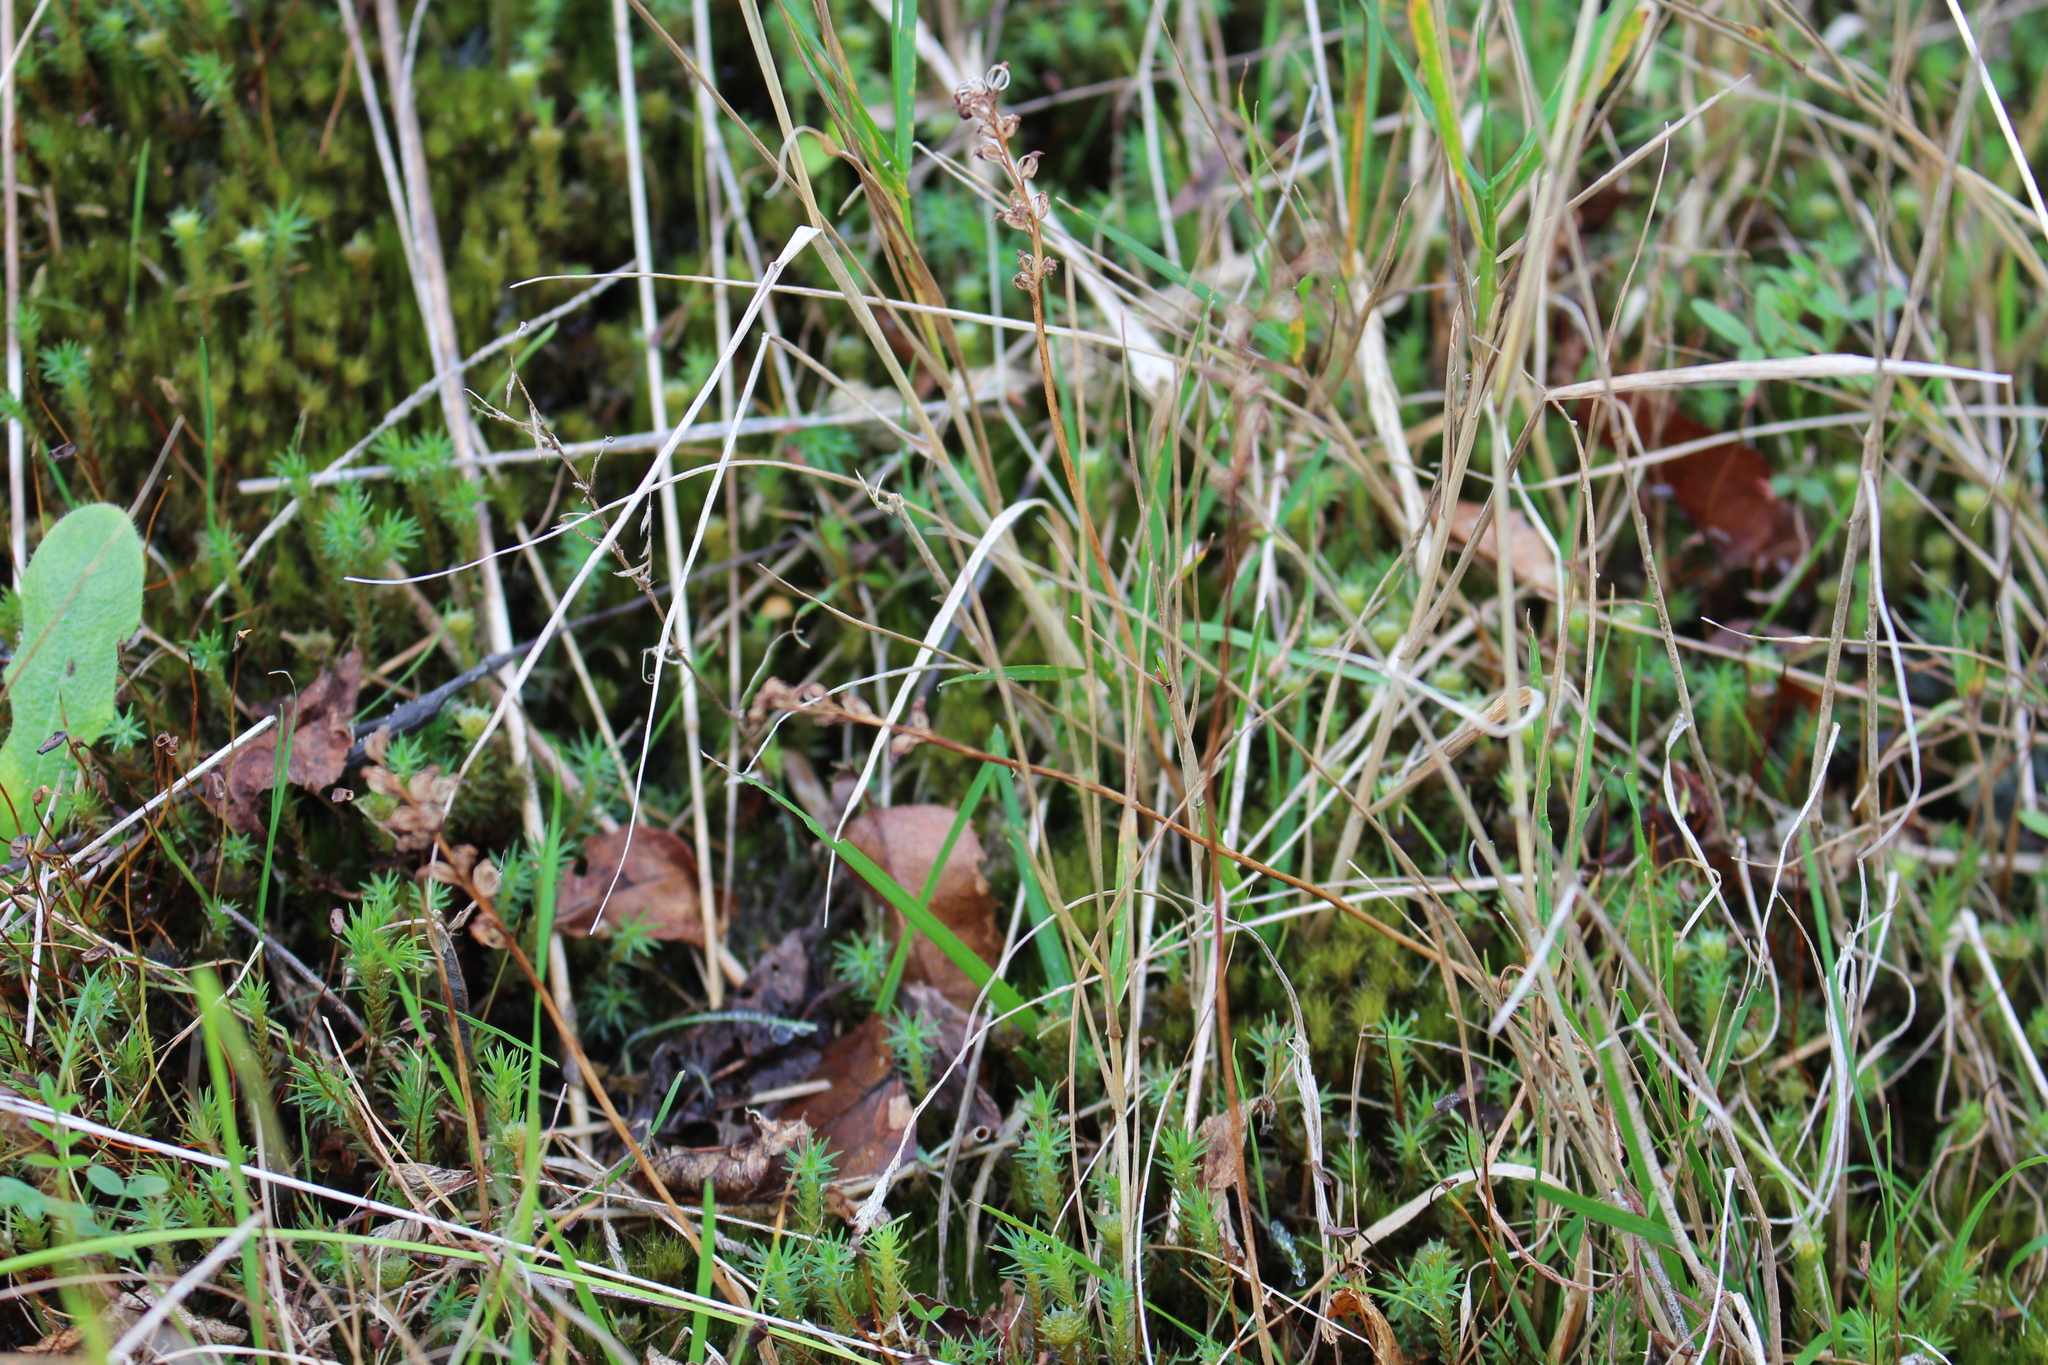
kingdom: Plantae
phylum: Tracheophyta
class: Liliopsida
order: Asparagales
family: Orchidaceae
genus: Microtis
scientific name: Microtis unifolia
